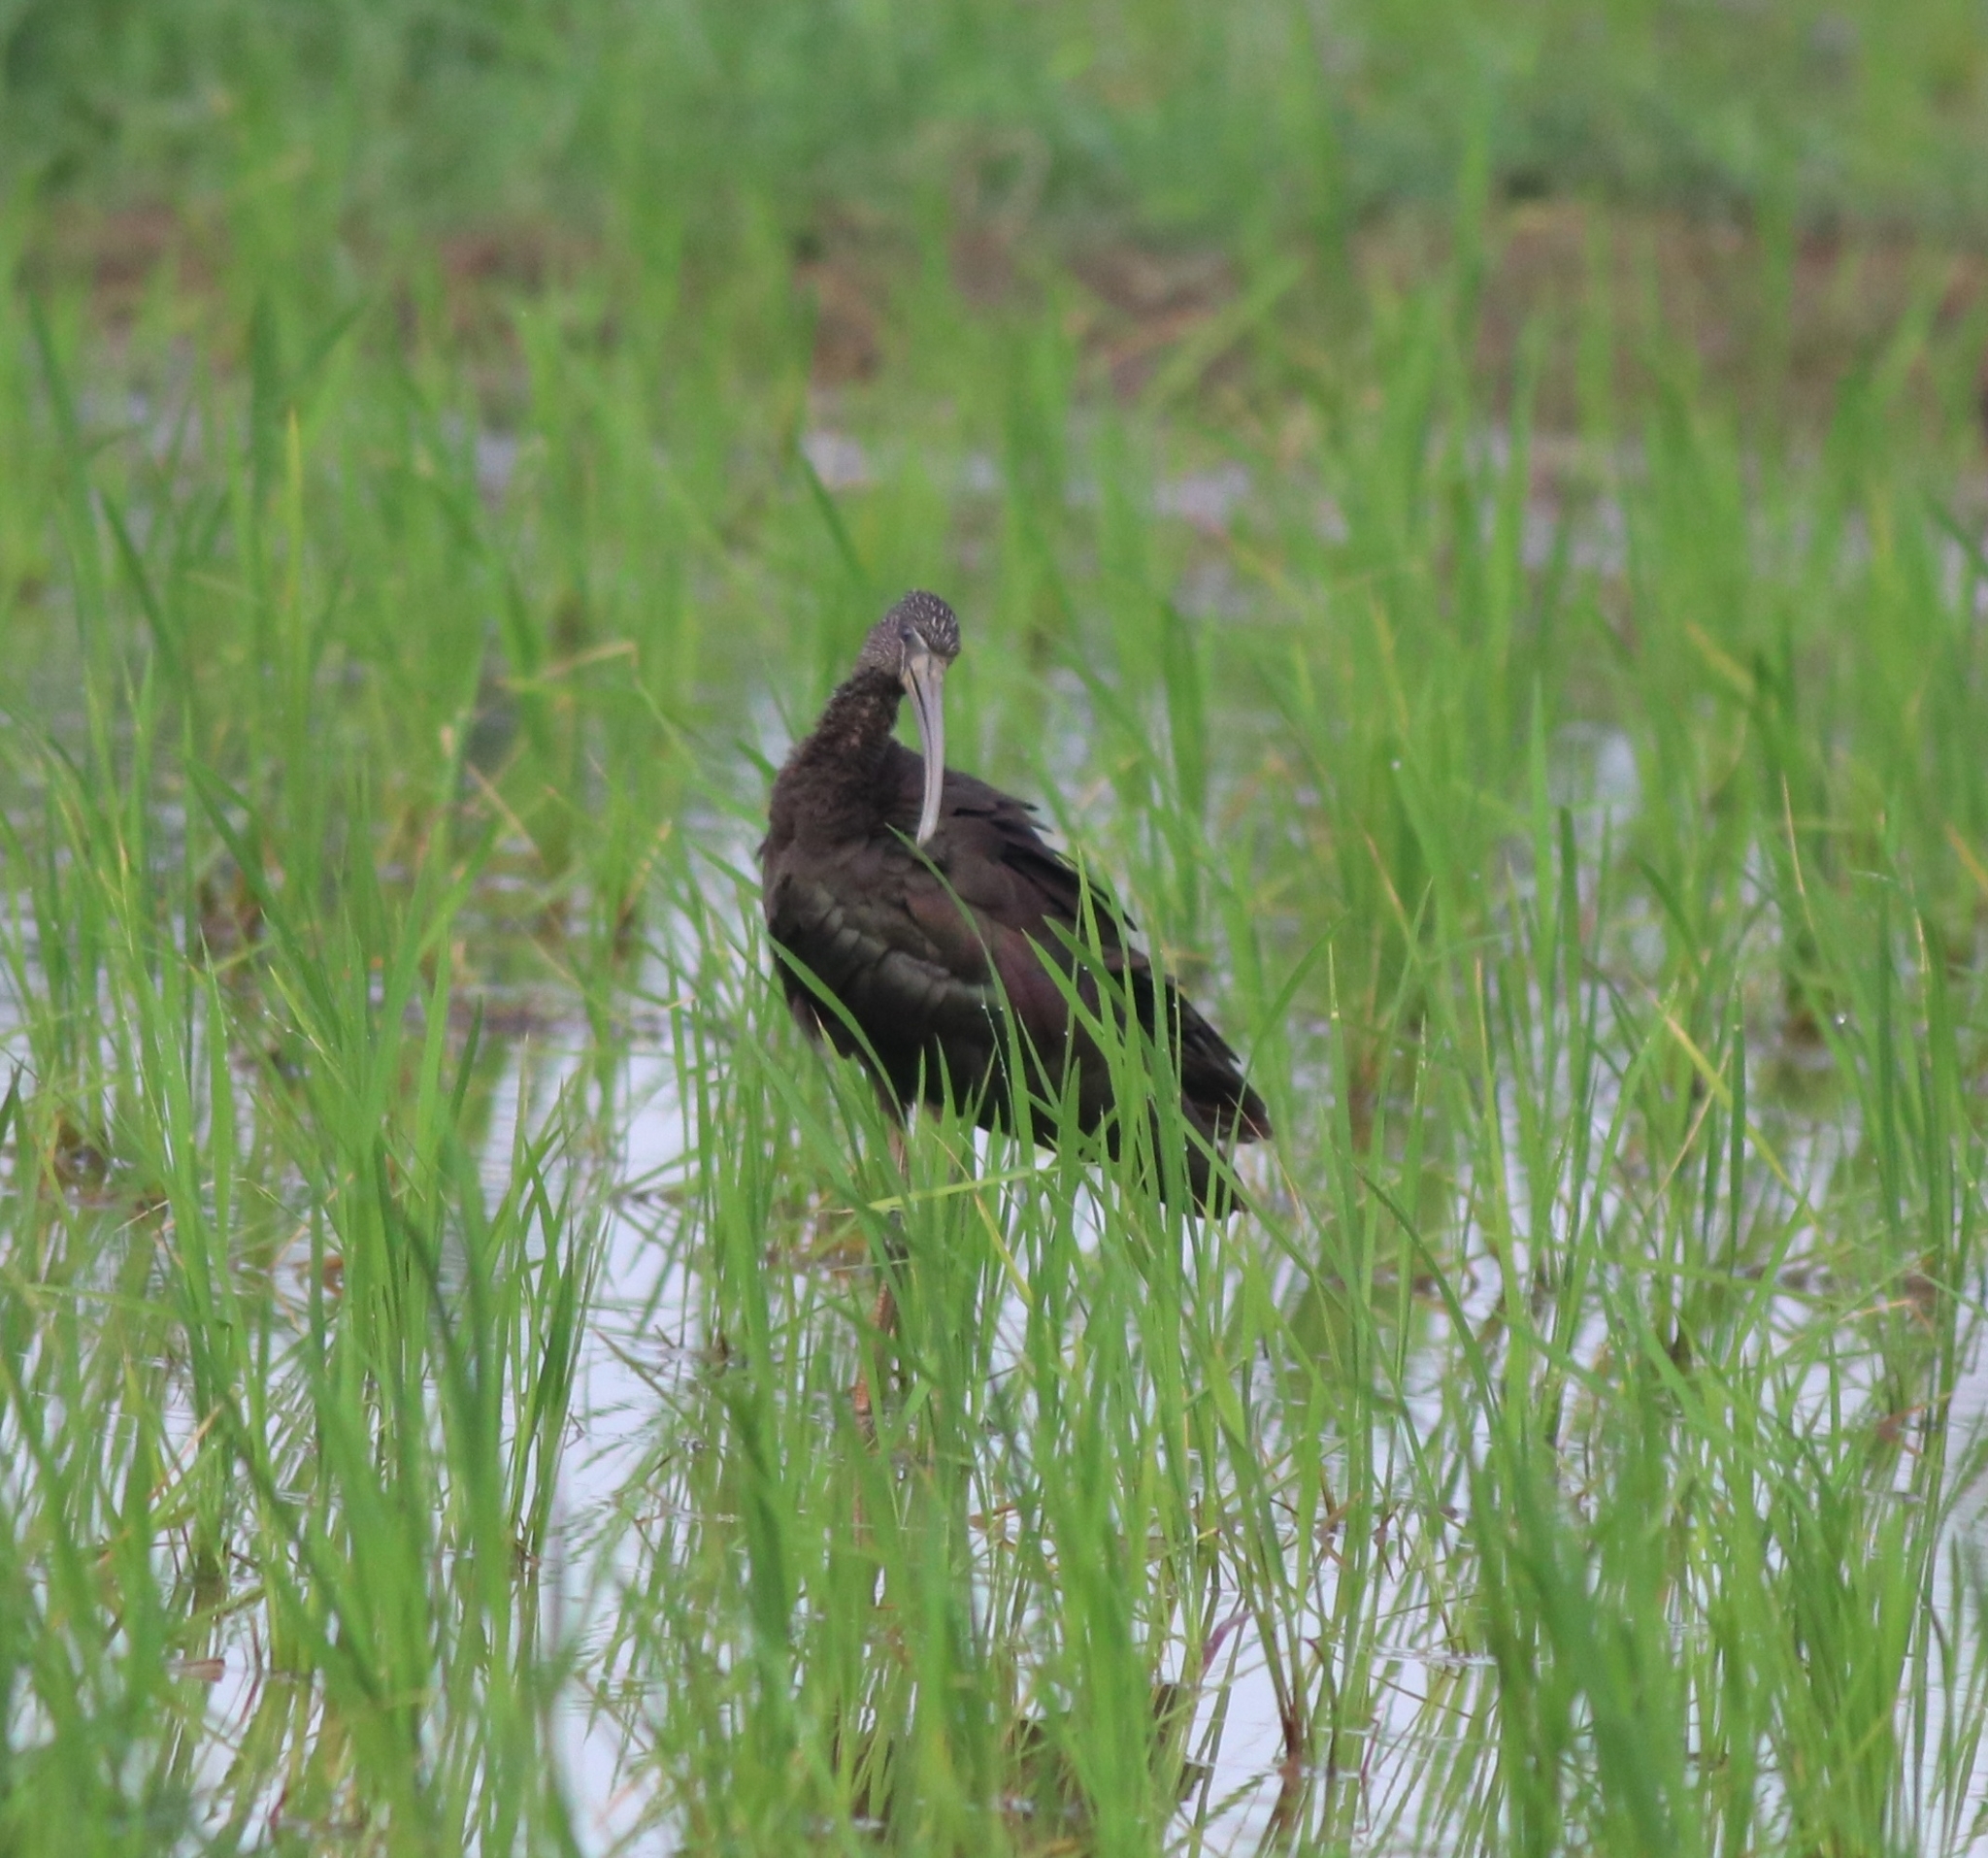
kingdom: Animalia
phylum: Chordata
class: Aves
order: Pelecaniformes
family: Threskiornithidae
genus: Plegadis
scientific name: Plegadis falcinellus
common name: Glossy ibis
